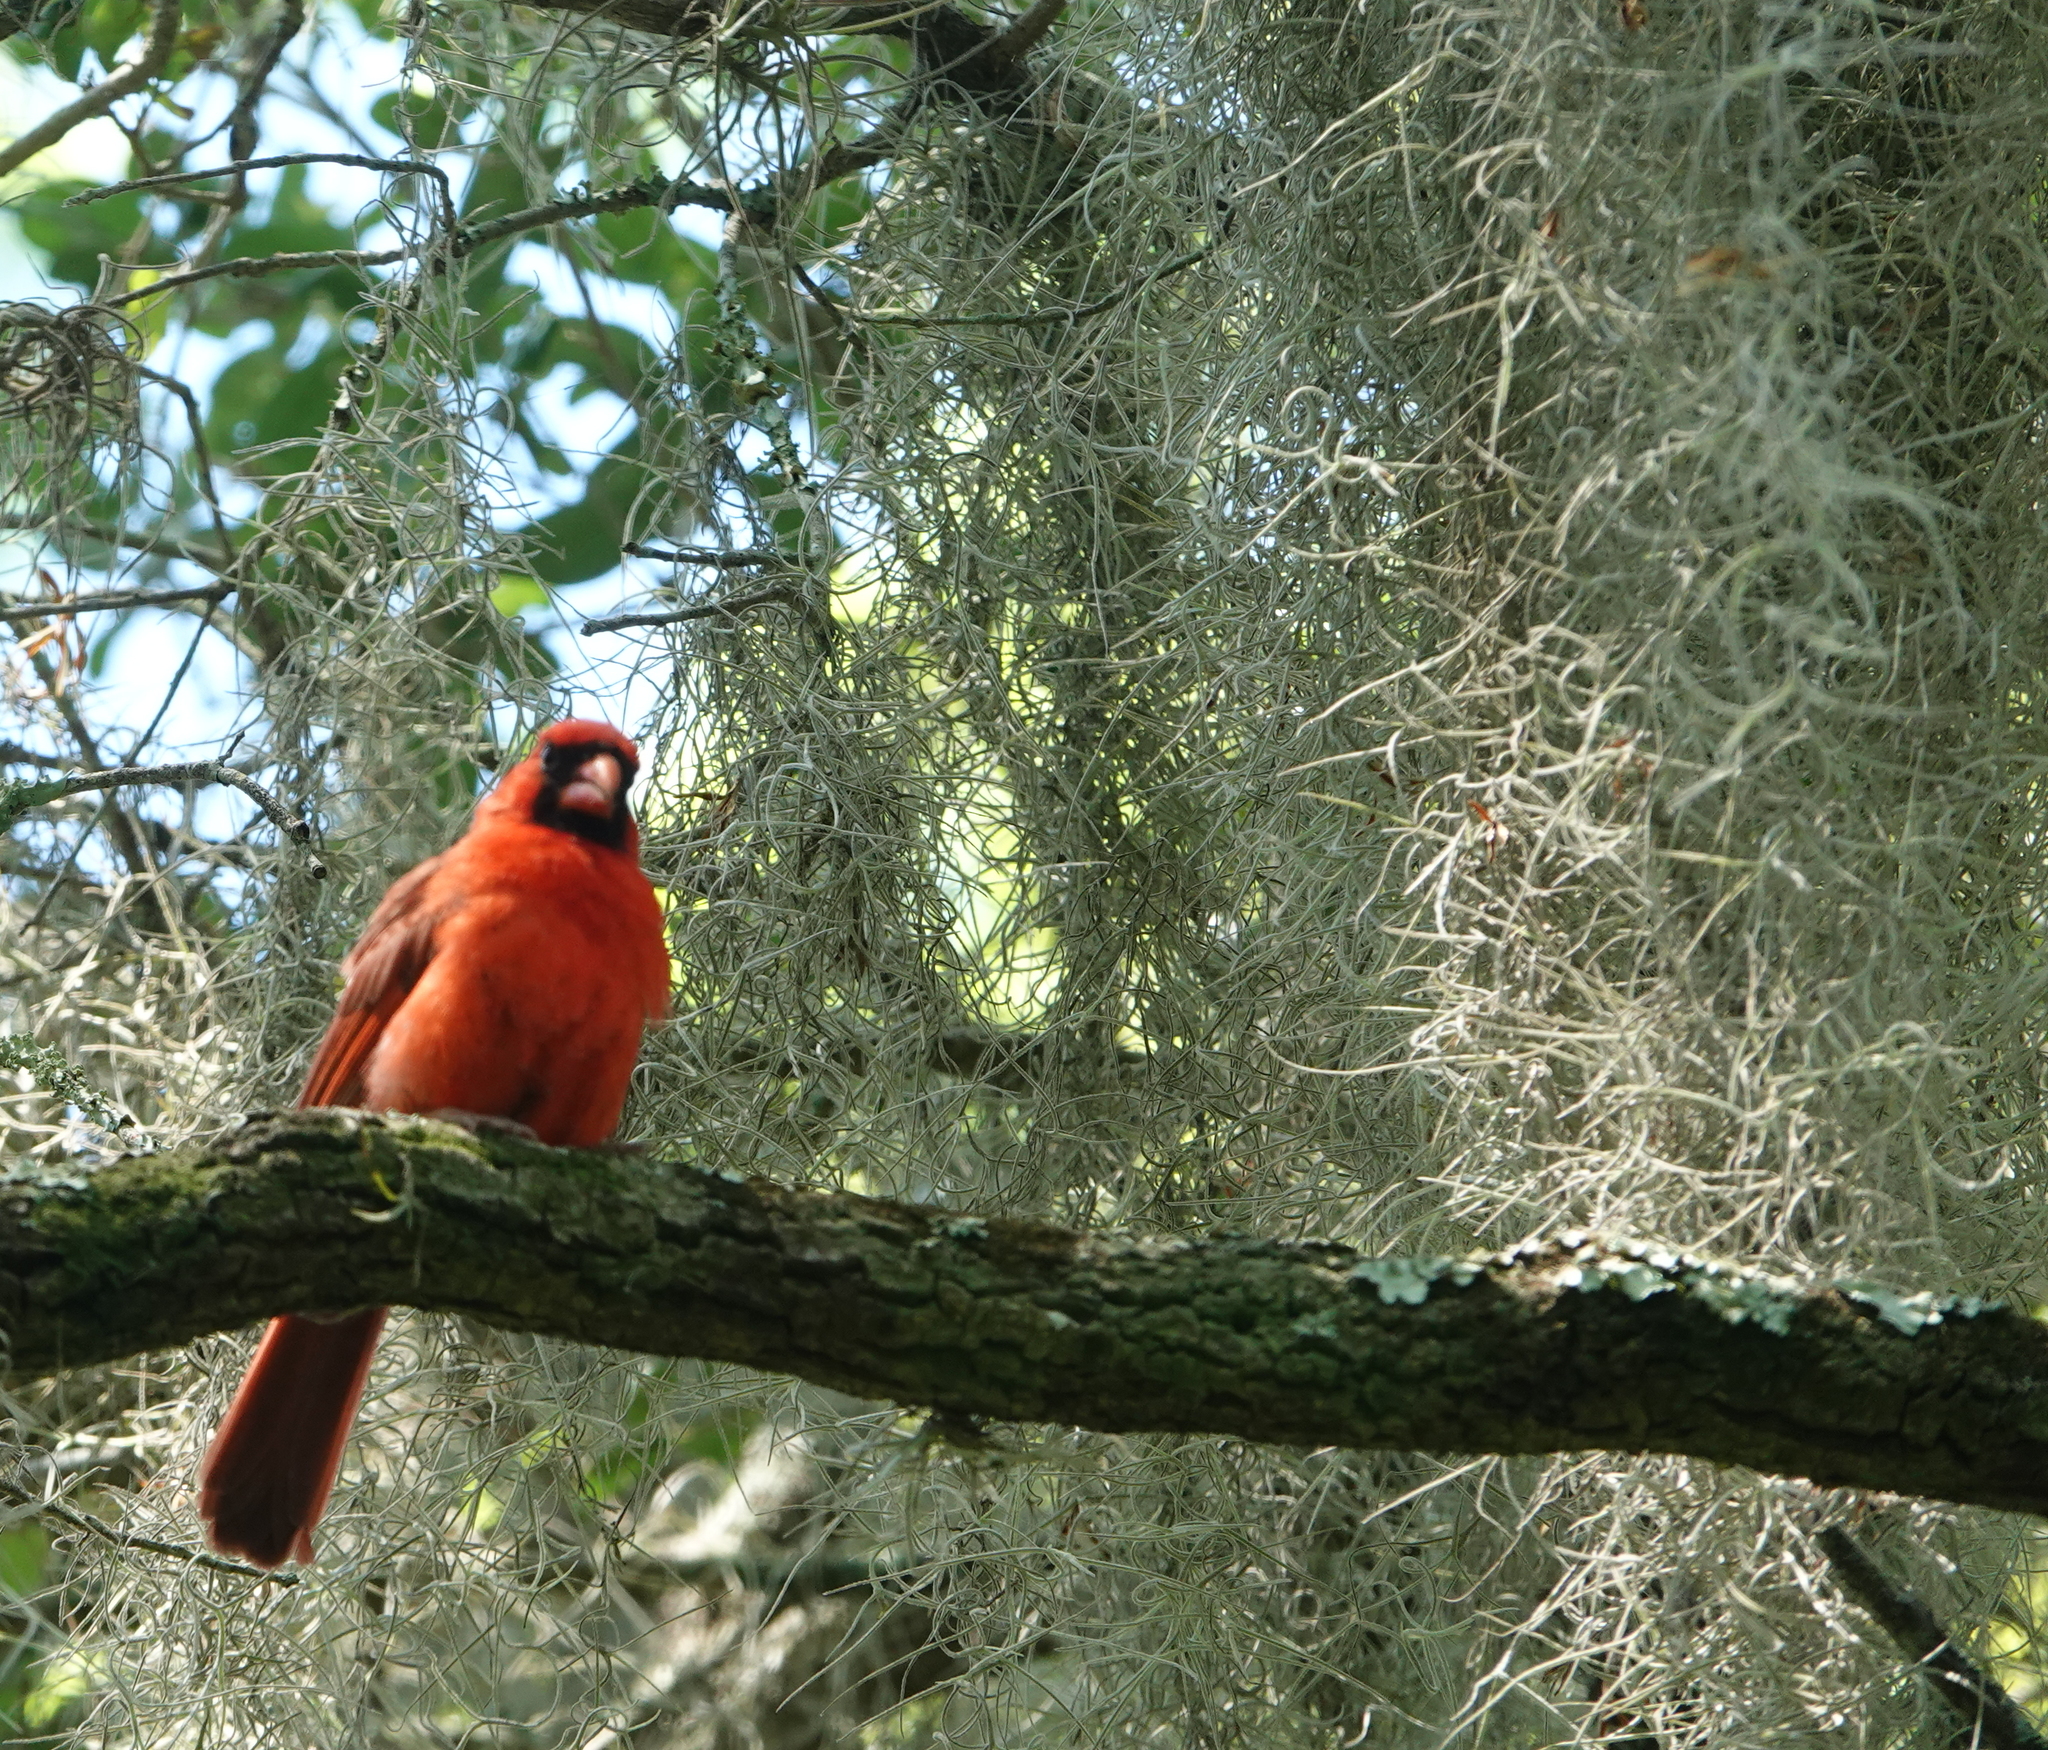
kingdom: Plantae
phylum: Tracheophyta
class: Liliopsida
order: Poales
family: Bromeliaceae
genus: Tillandsia
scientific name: Tillandsia usneoides
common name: Spanish moss
